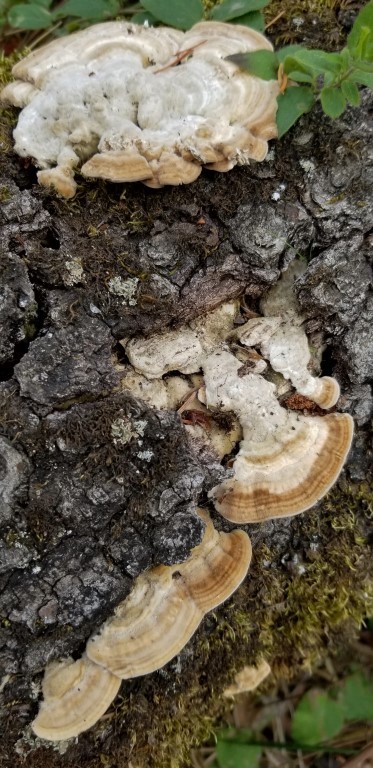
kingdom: Fungi
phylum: Basidiomycota
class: Agaricomycetes
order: Polyporales
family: Polyporaceae
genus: Lenzites
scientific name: Lenzites betulinus
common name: Birch mazegill
